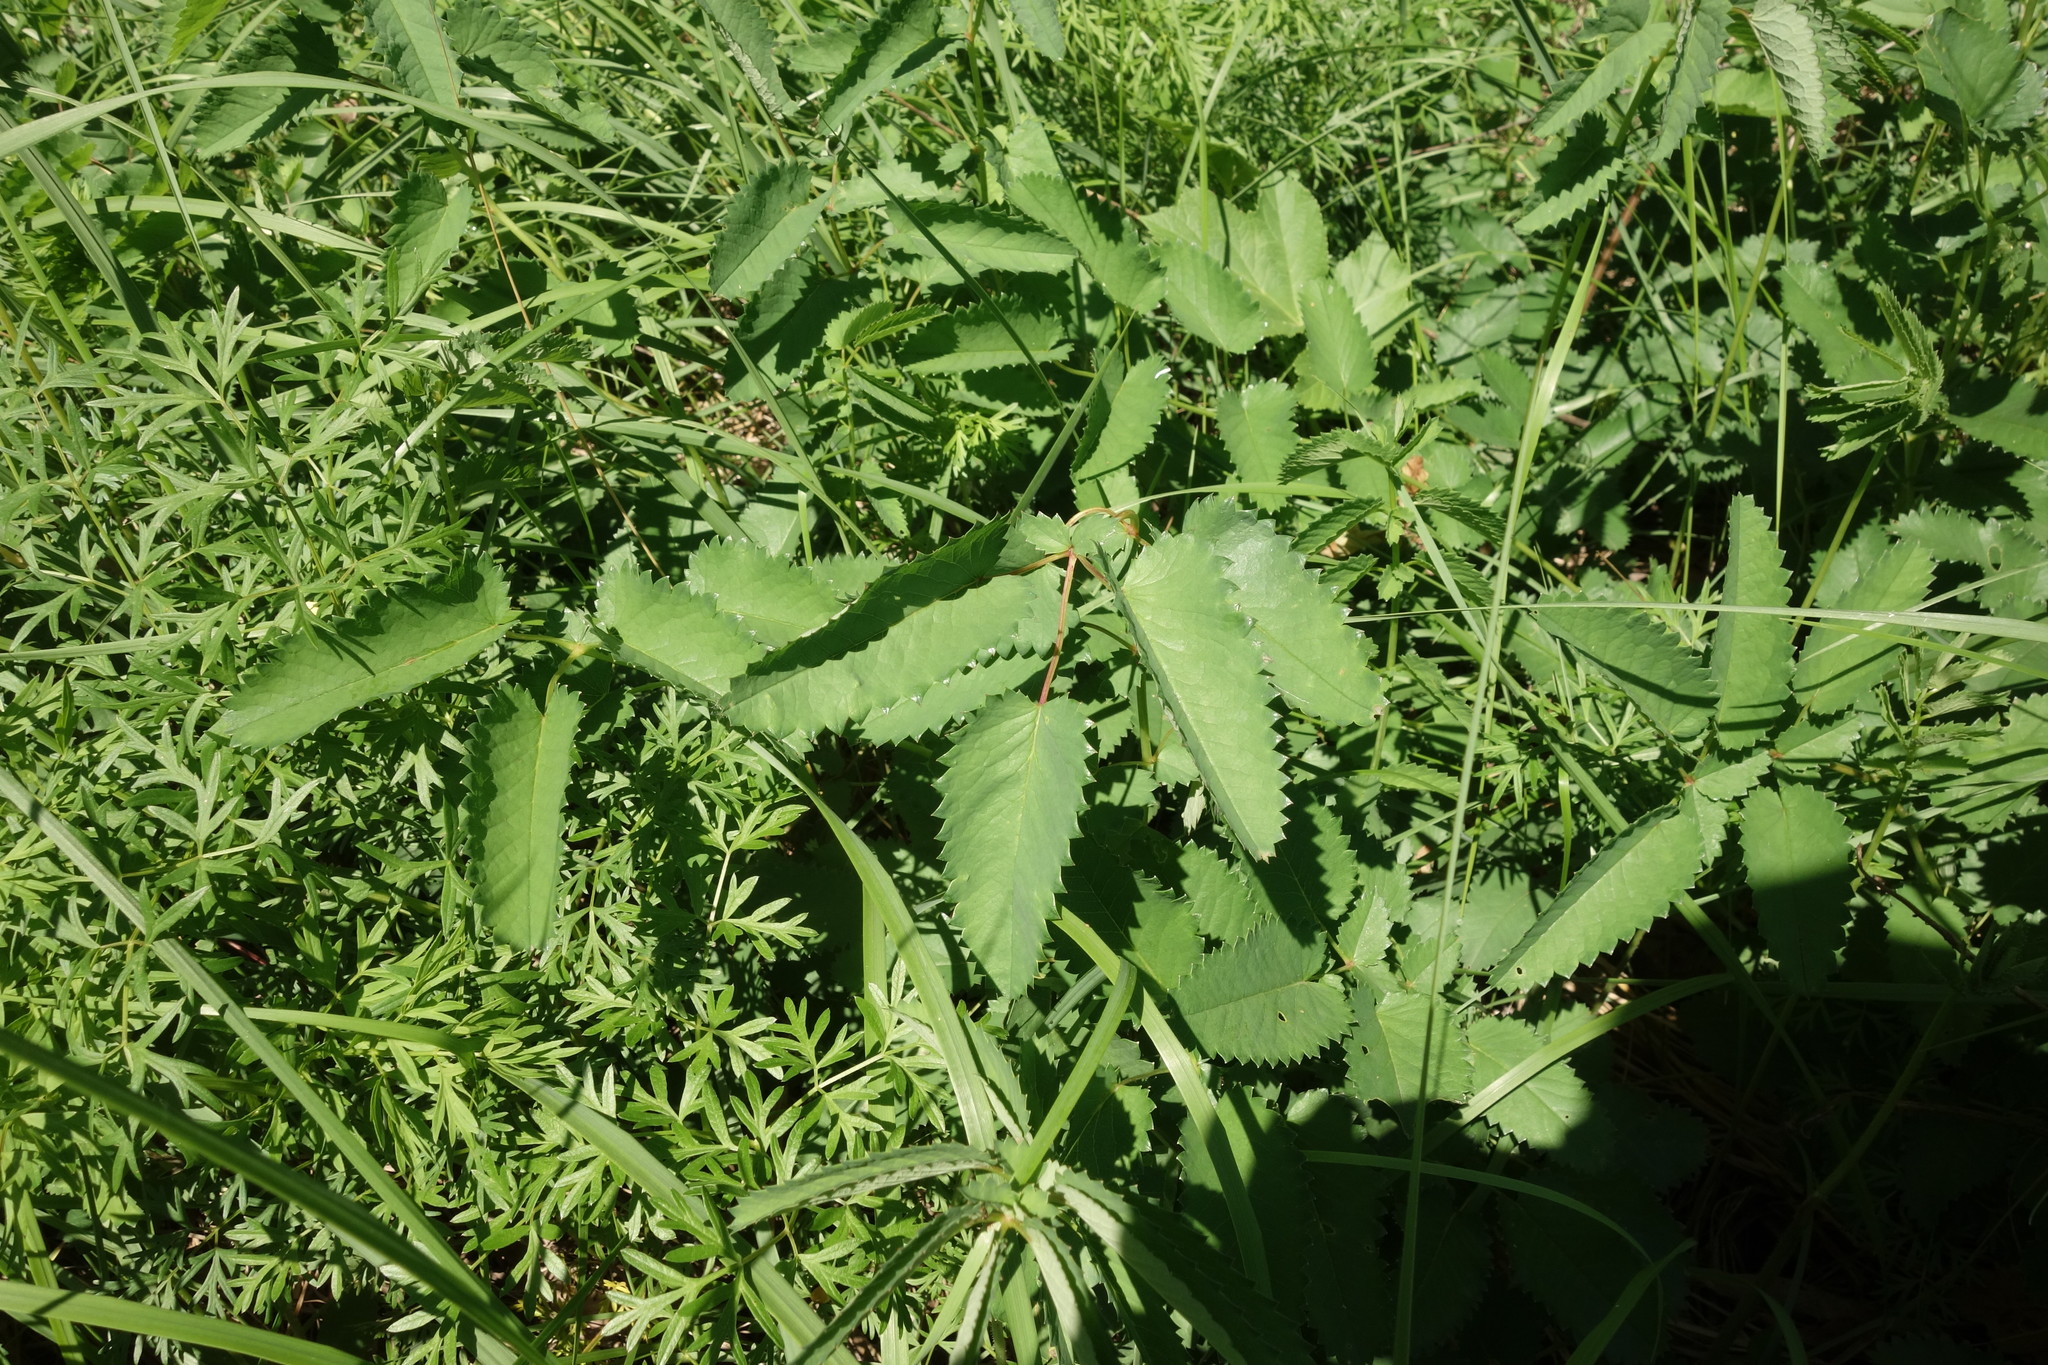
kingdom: Plantae
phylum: Tracheophyta
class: Magnoliopsida
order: Rosales
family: Rosaceae
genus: Sanguisorba
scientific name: Sanguisorba officinalis
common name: Great burnet
